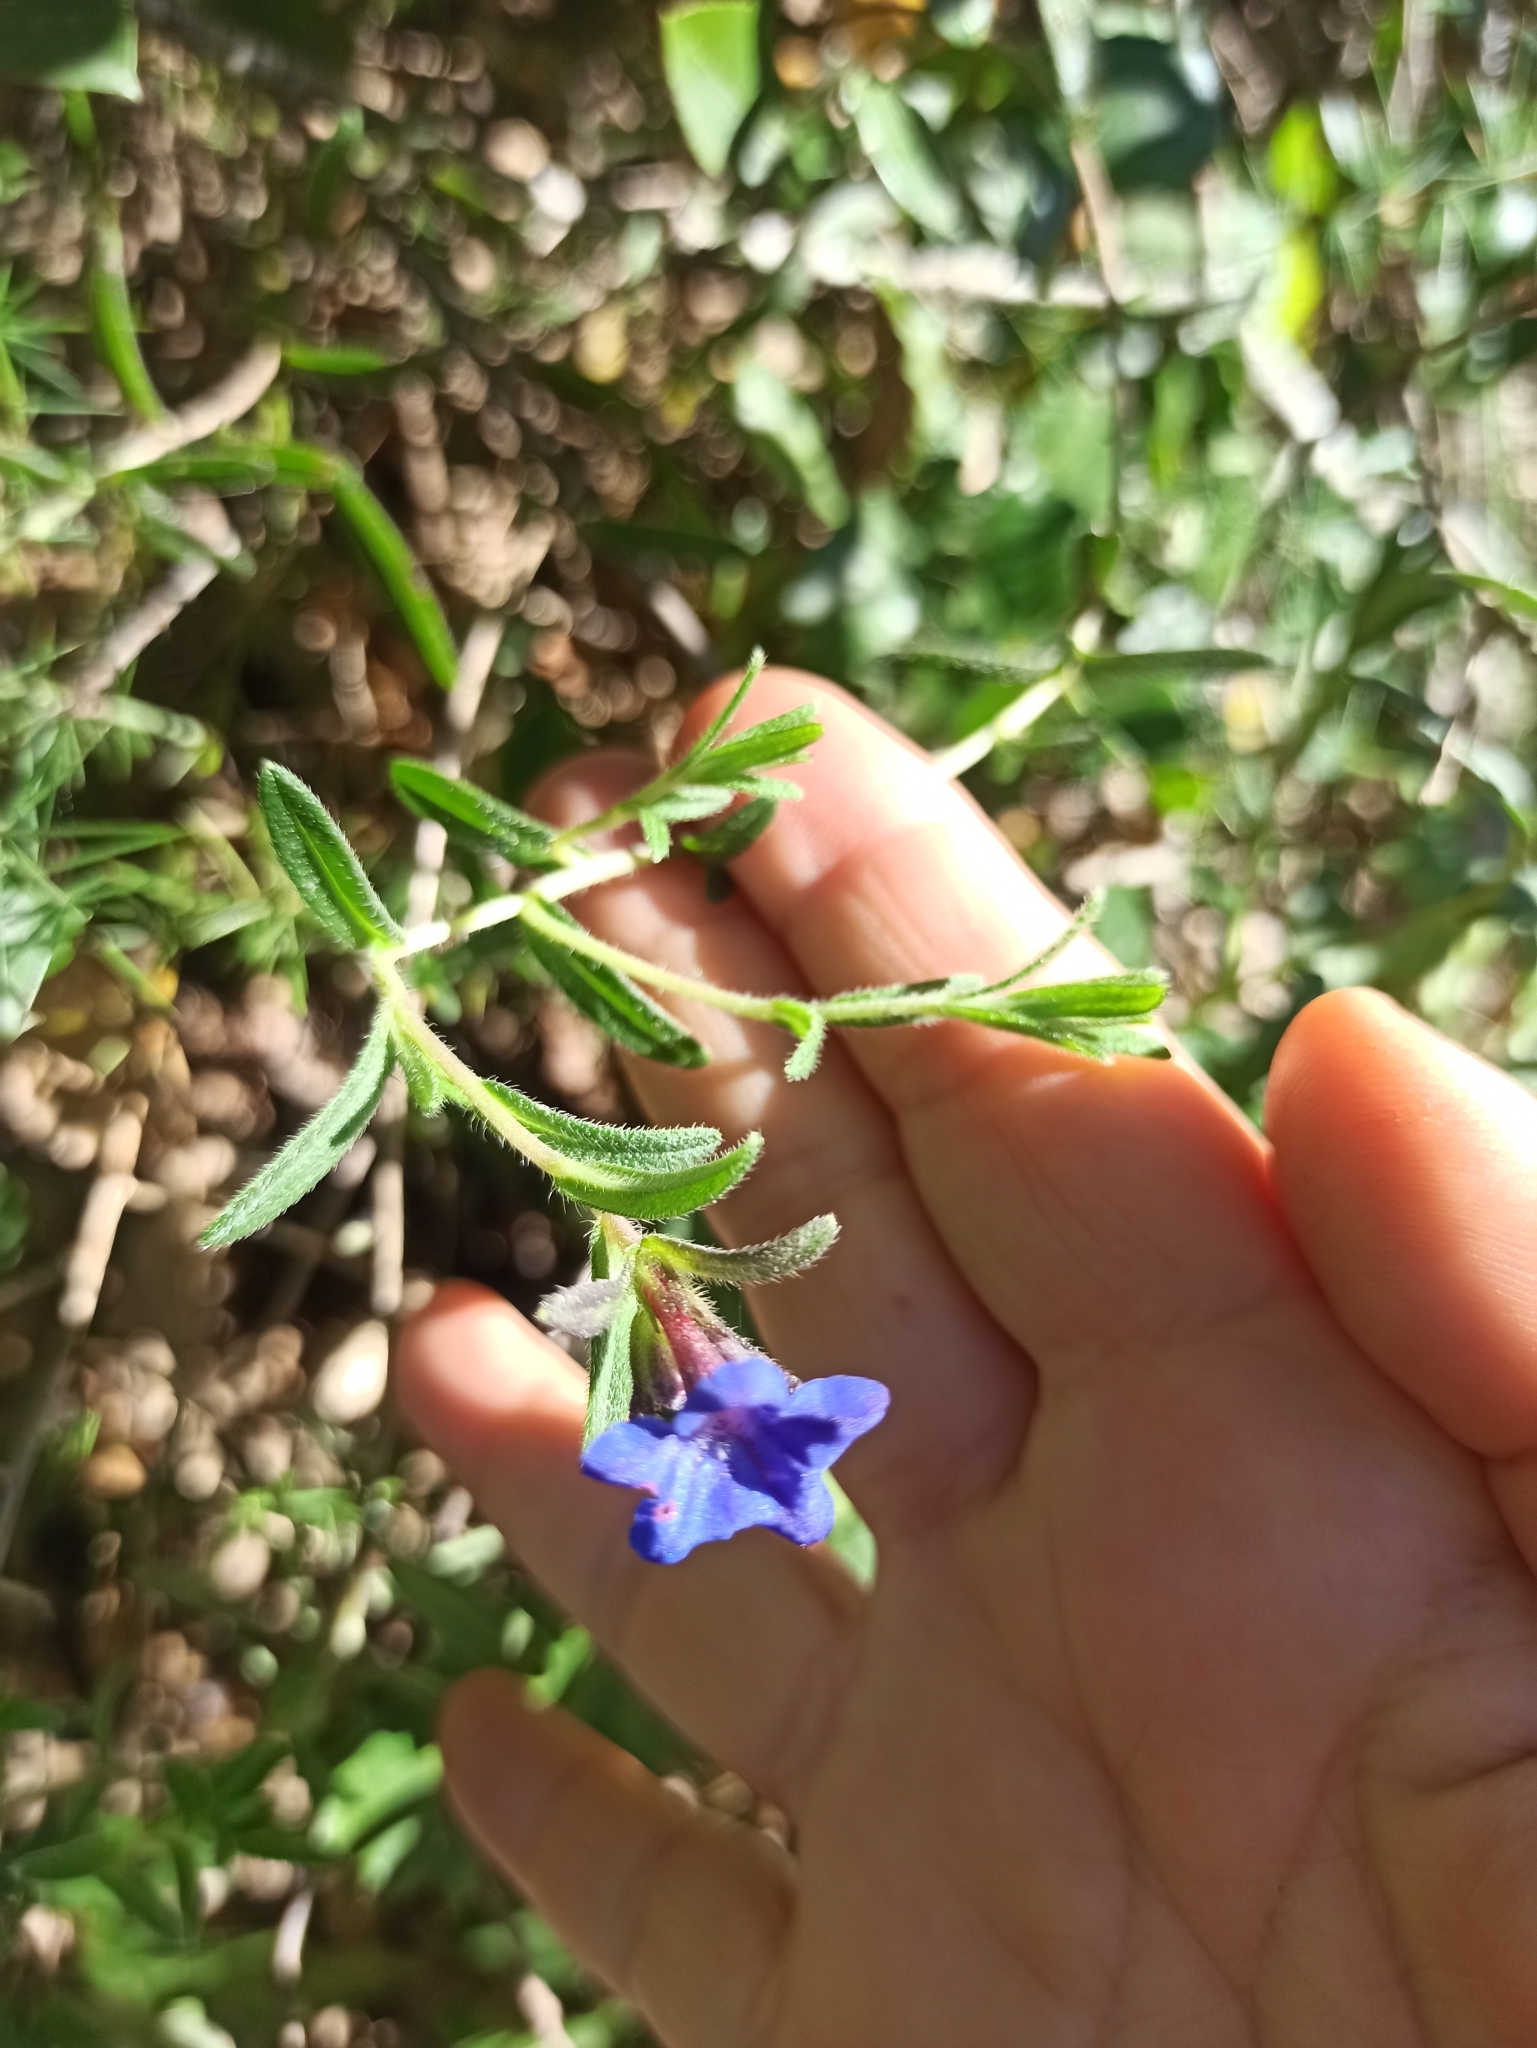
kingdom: Plantae
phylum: Tracheophyta
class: Magnoliopsida
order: Boraginales
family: Boraginaceae
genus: Glandora
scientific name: Glandora prostrata
